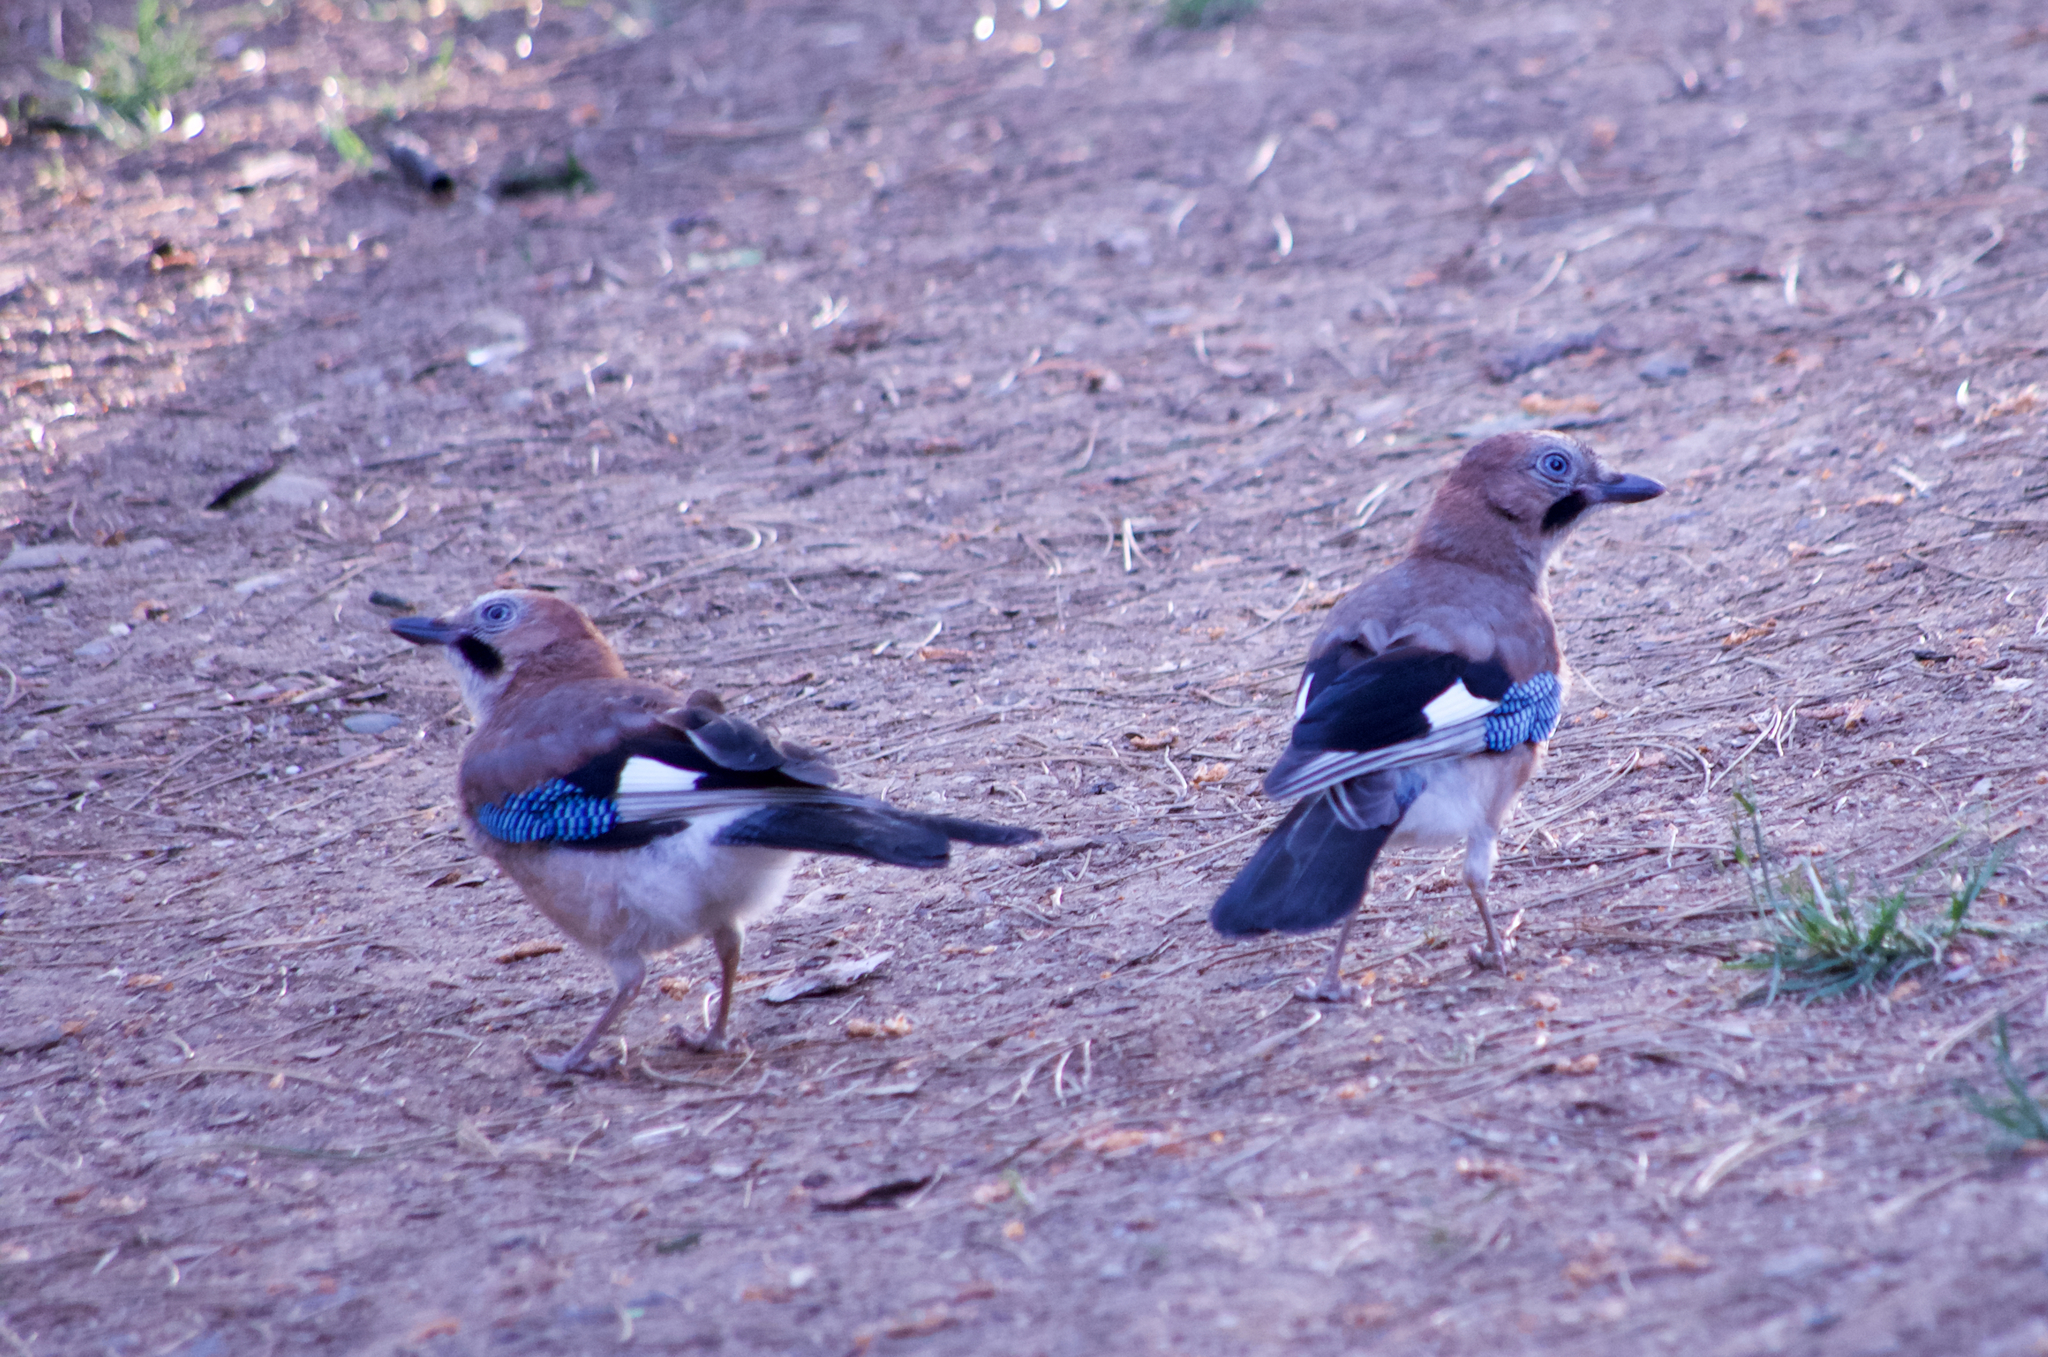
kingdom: Animalia
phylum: Chordata
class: Aves
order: Passeriformes
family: Corvidae
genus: Garrulus
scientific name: Garrulus glandarius
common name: Eurasian jay
